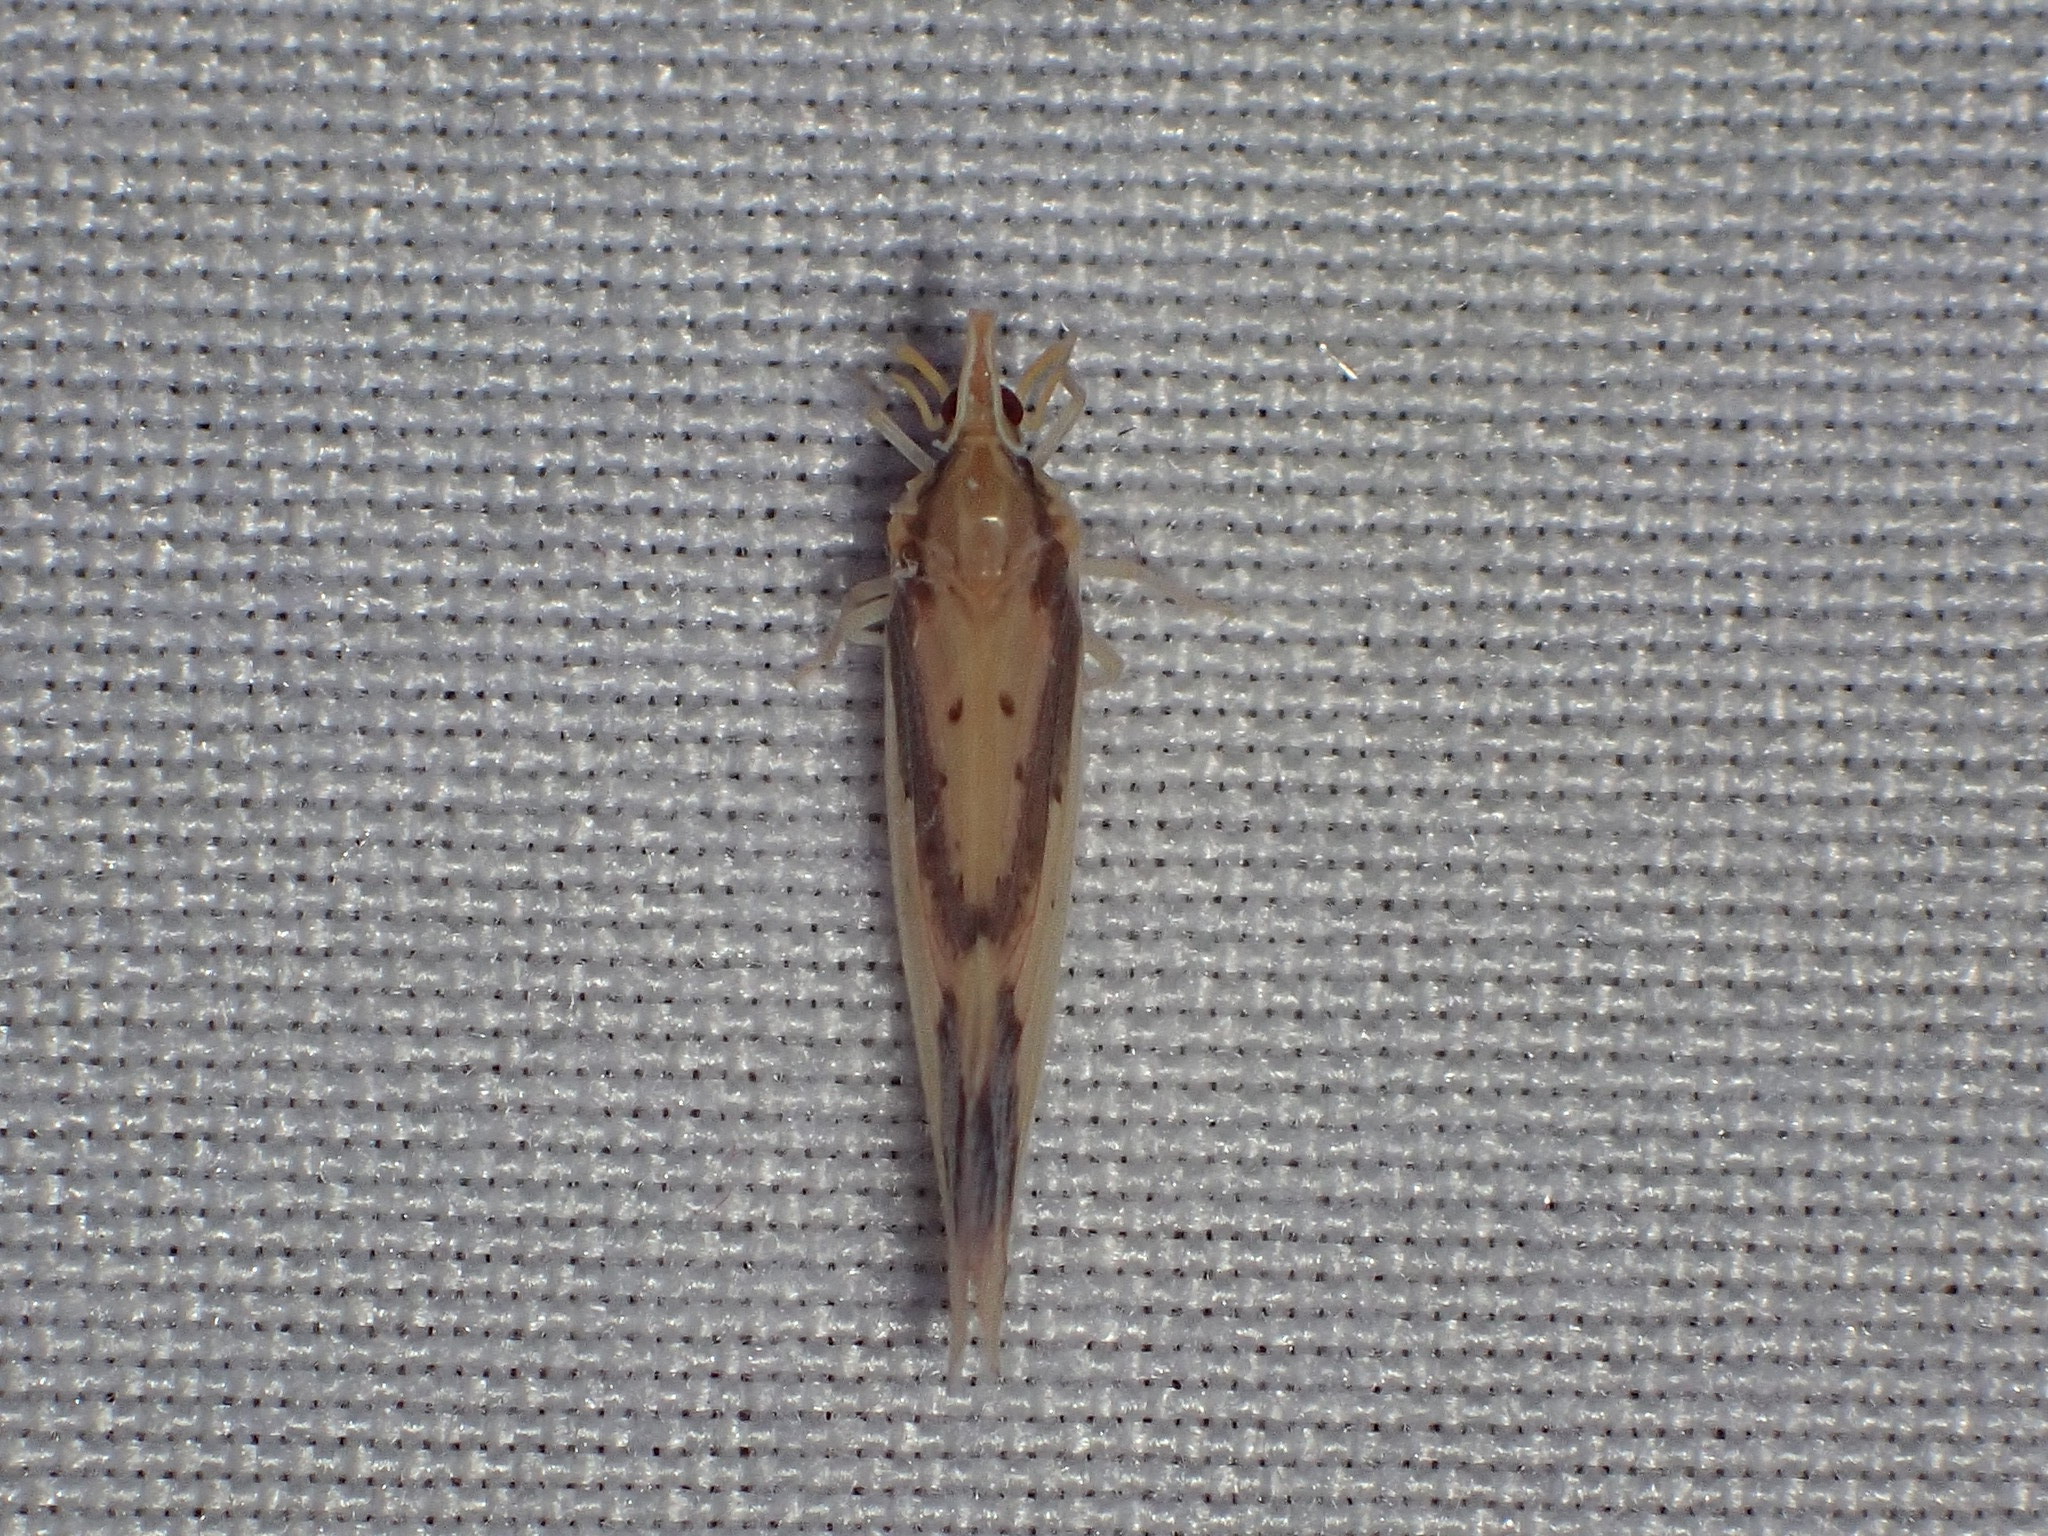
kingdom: Animalia
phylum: Arthropoda
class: Insecta
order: Hemiptera
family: Derbidae
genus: Otiocerus
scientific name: Otiocerus reaumurii
